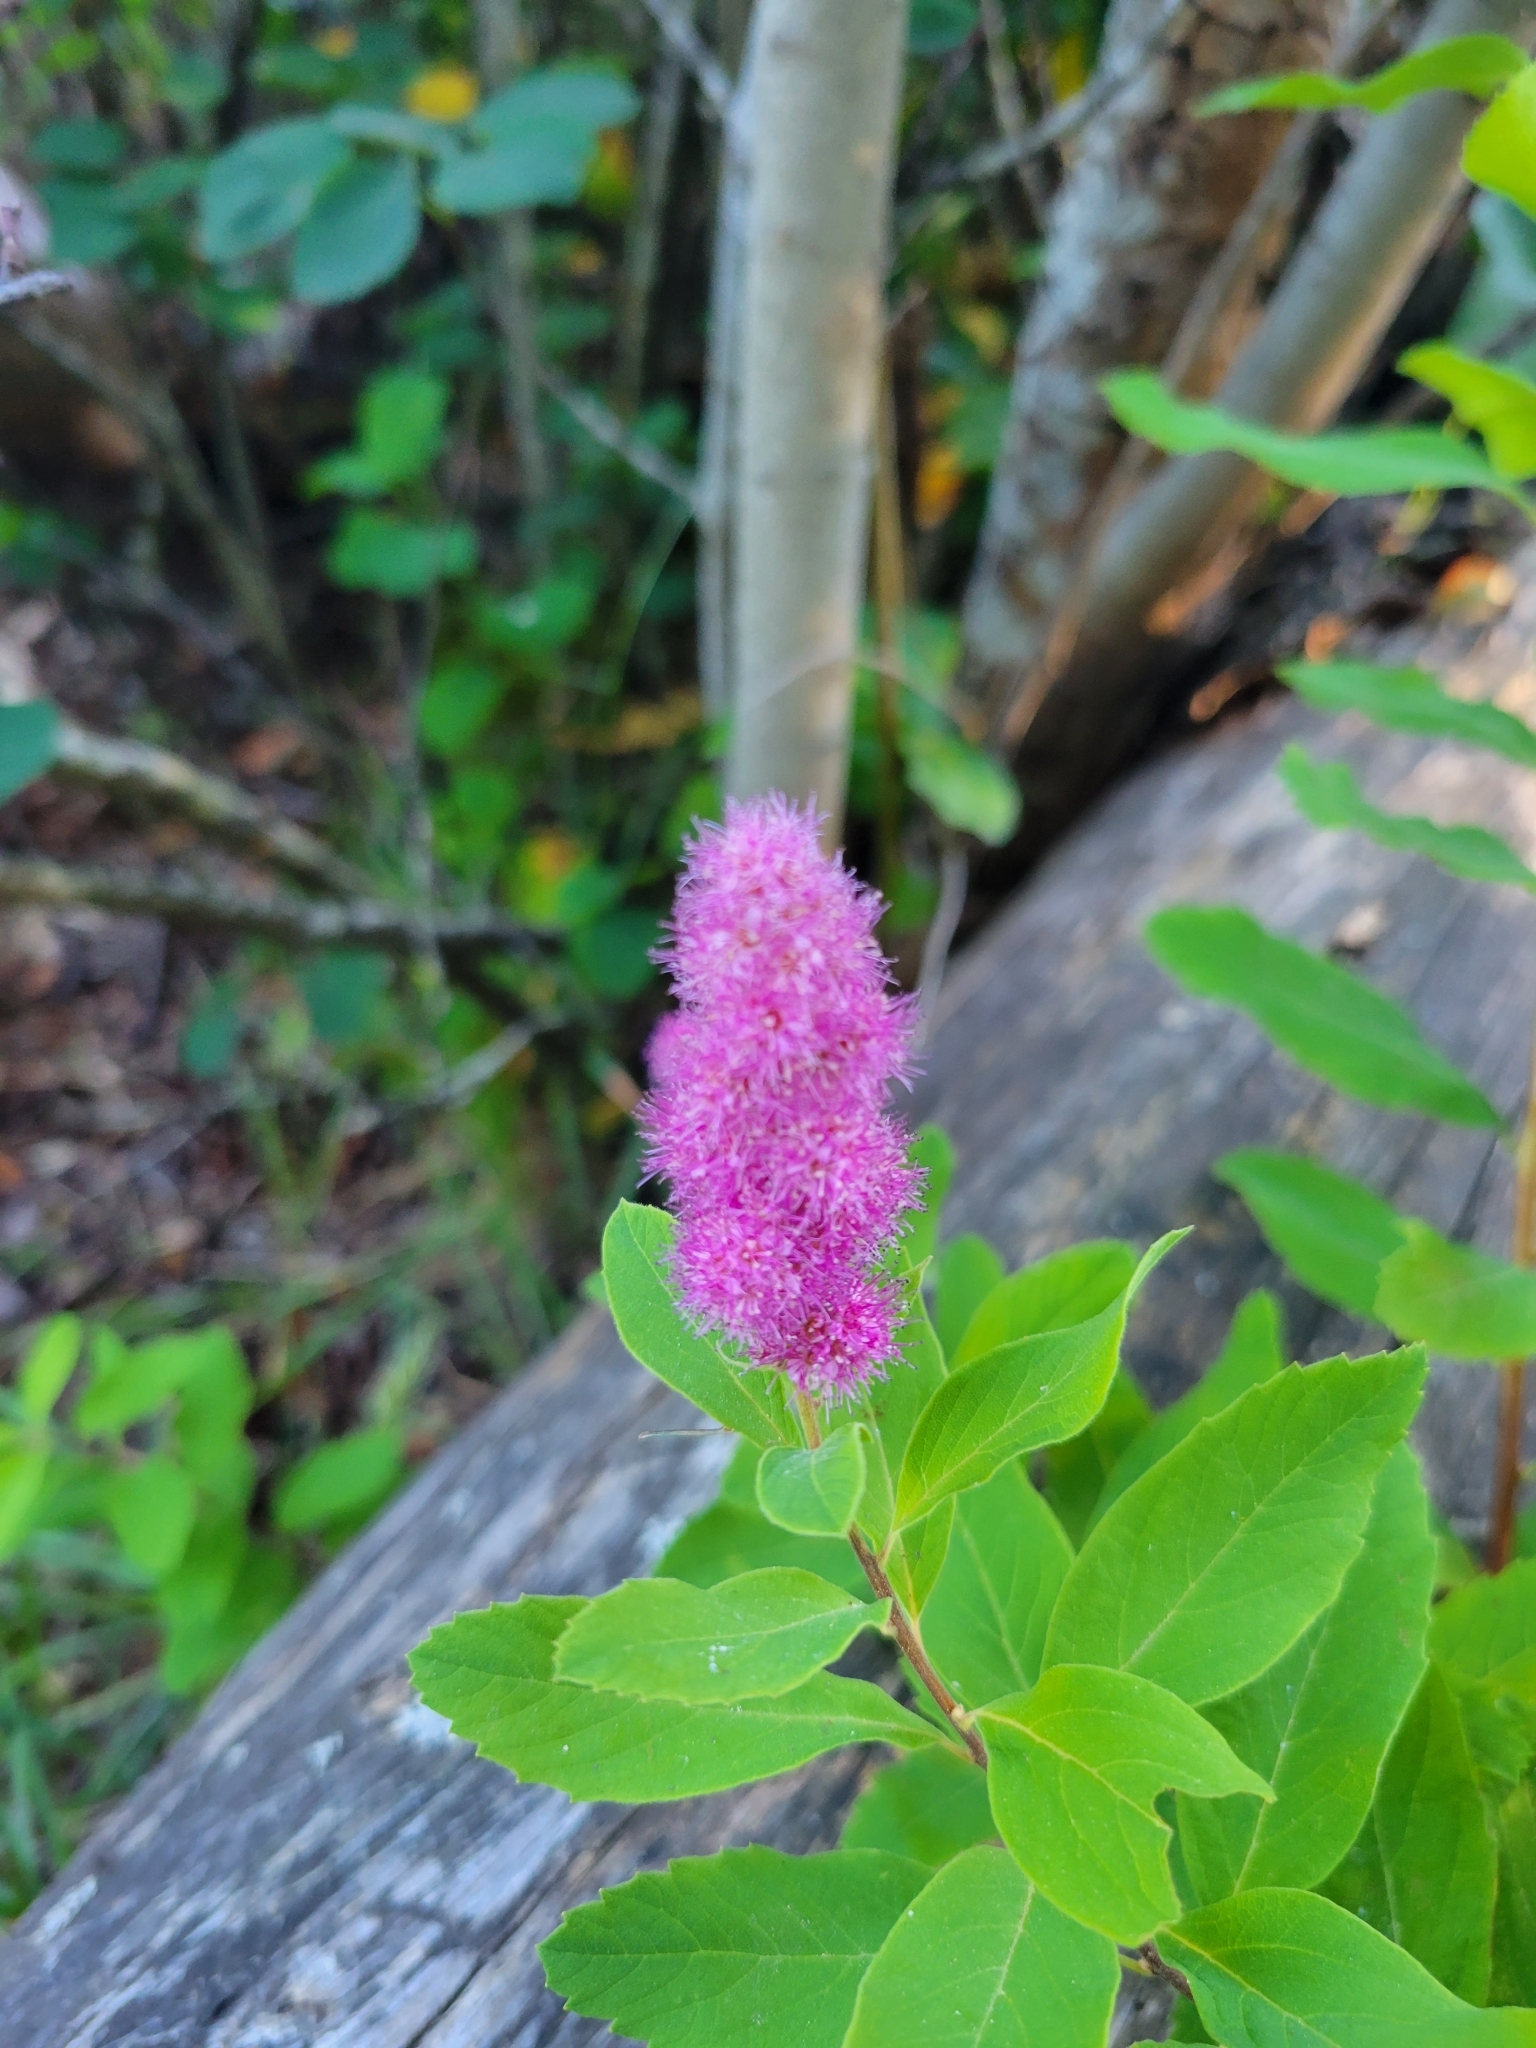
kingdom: Plantae
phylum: Tracheophyta
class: Magnoliopsida
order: Rosales
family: Rosaceae
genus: Spiraea
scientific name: Spiraea douglasii
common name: Steeplebush
